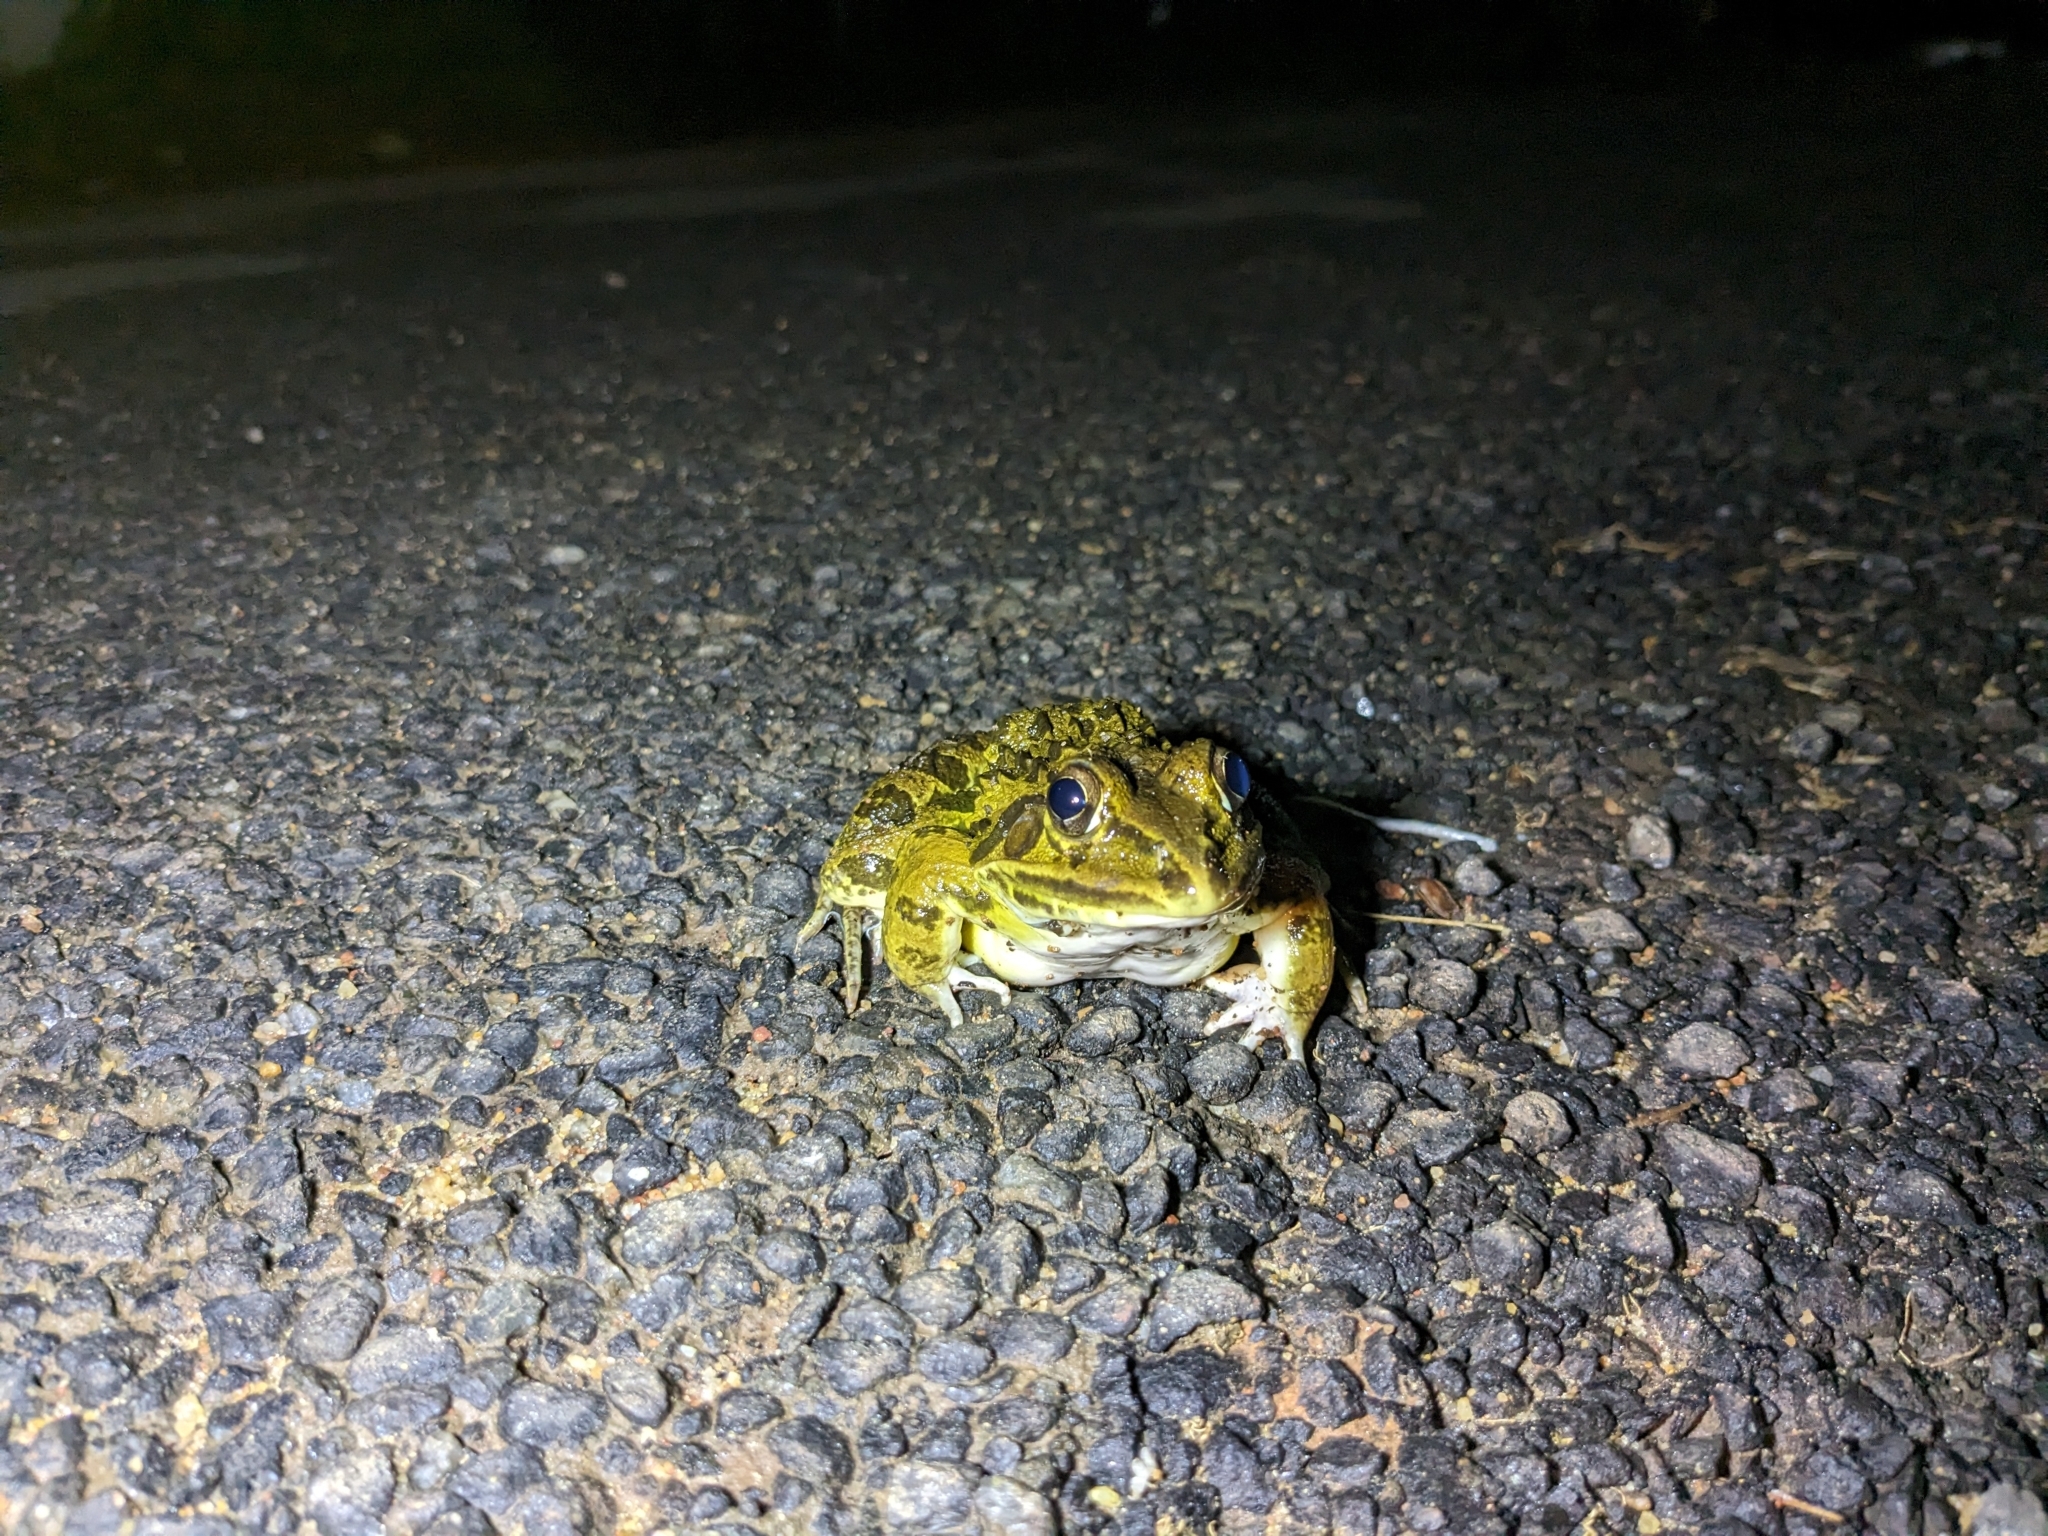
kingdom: Animalia
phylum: Chordata
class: Amphibia
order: Anura
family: Dicroglossidae
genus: Hoplobatrachus
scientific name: Hoplobatrachus tigerinus
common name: Indian bullfrog
